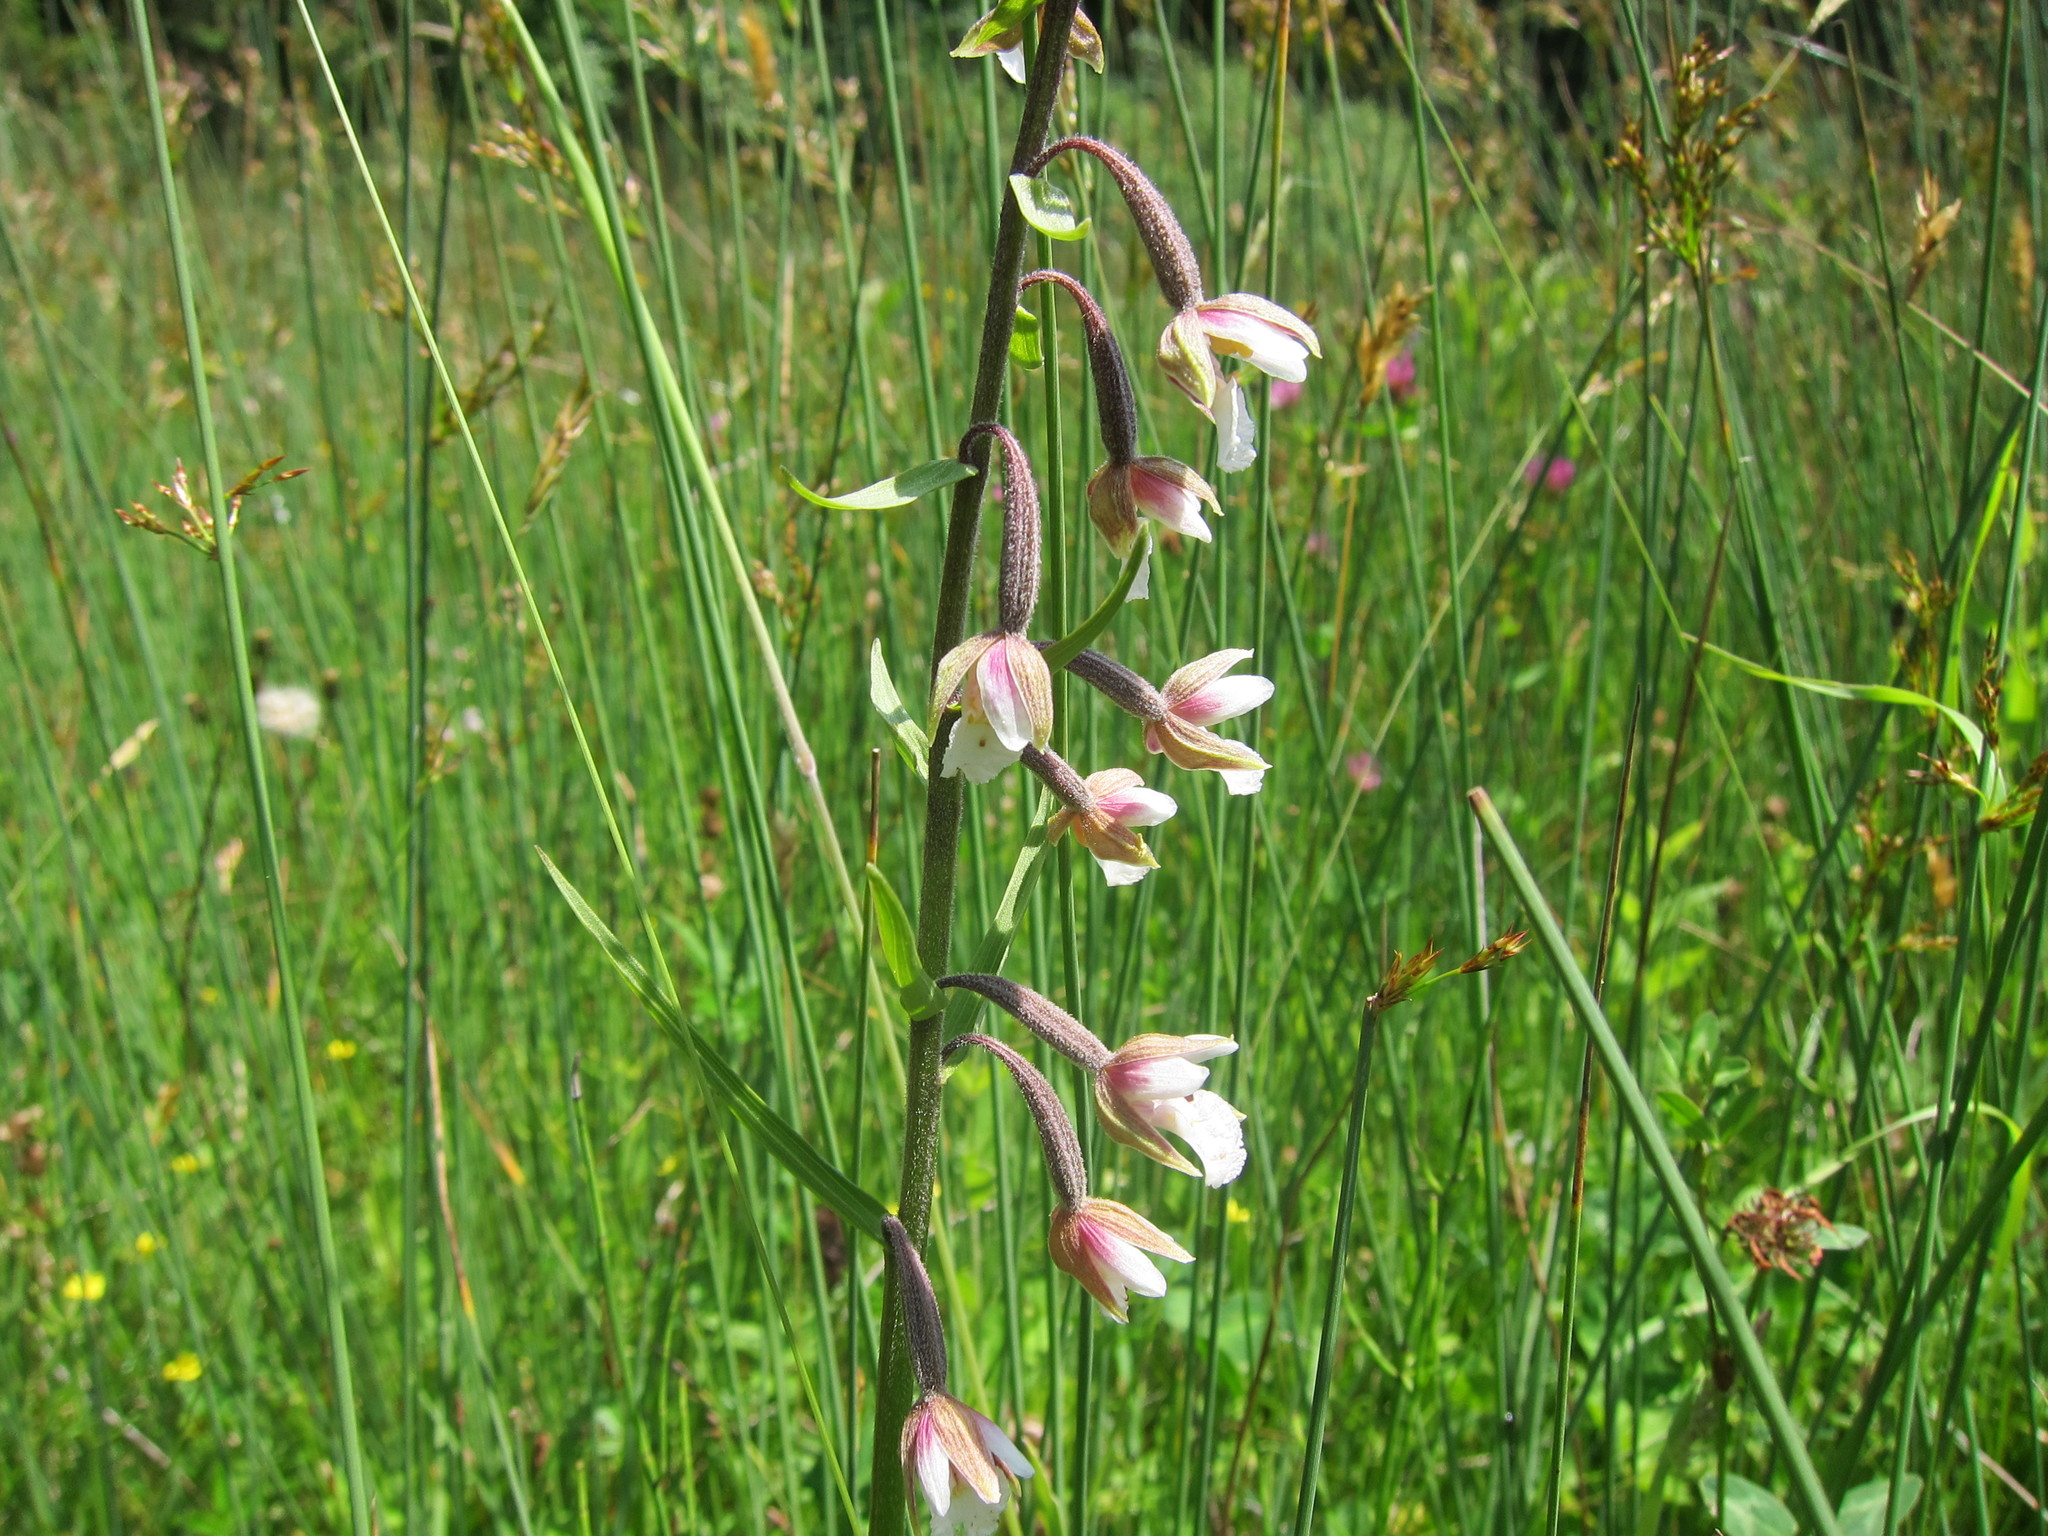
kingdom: Plantae
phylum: Tracheophyta
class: Liliopsida
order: Asparagales
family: Orchidaceae
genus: Epipactis
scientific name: Epipactis palustris
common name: Marsh helleborine
